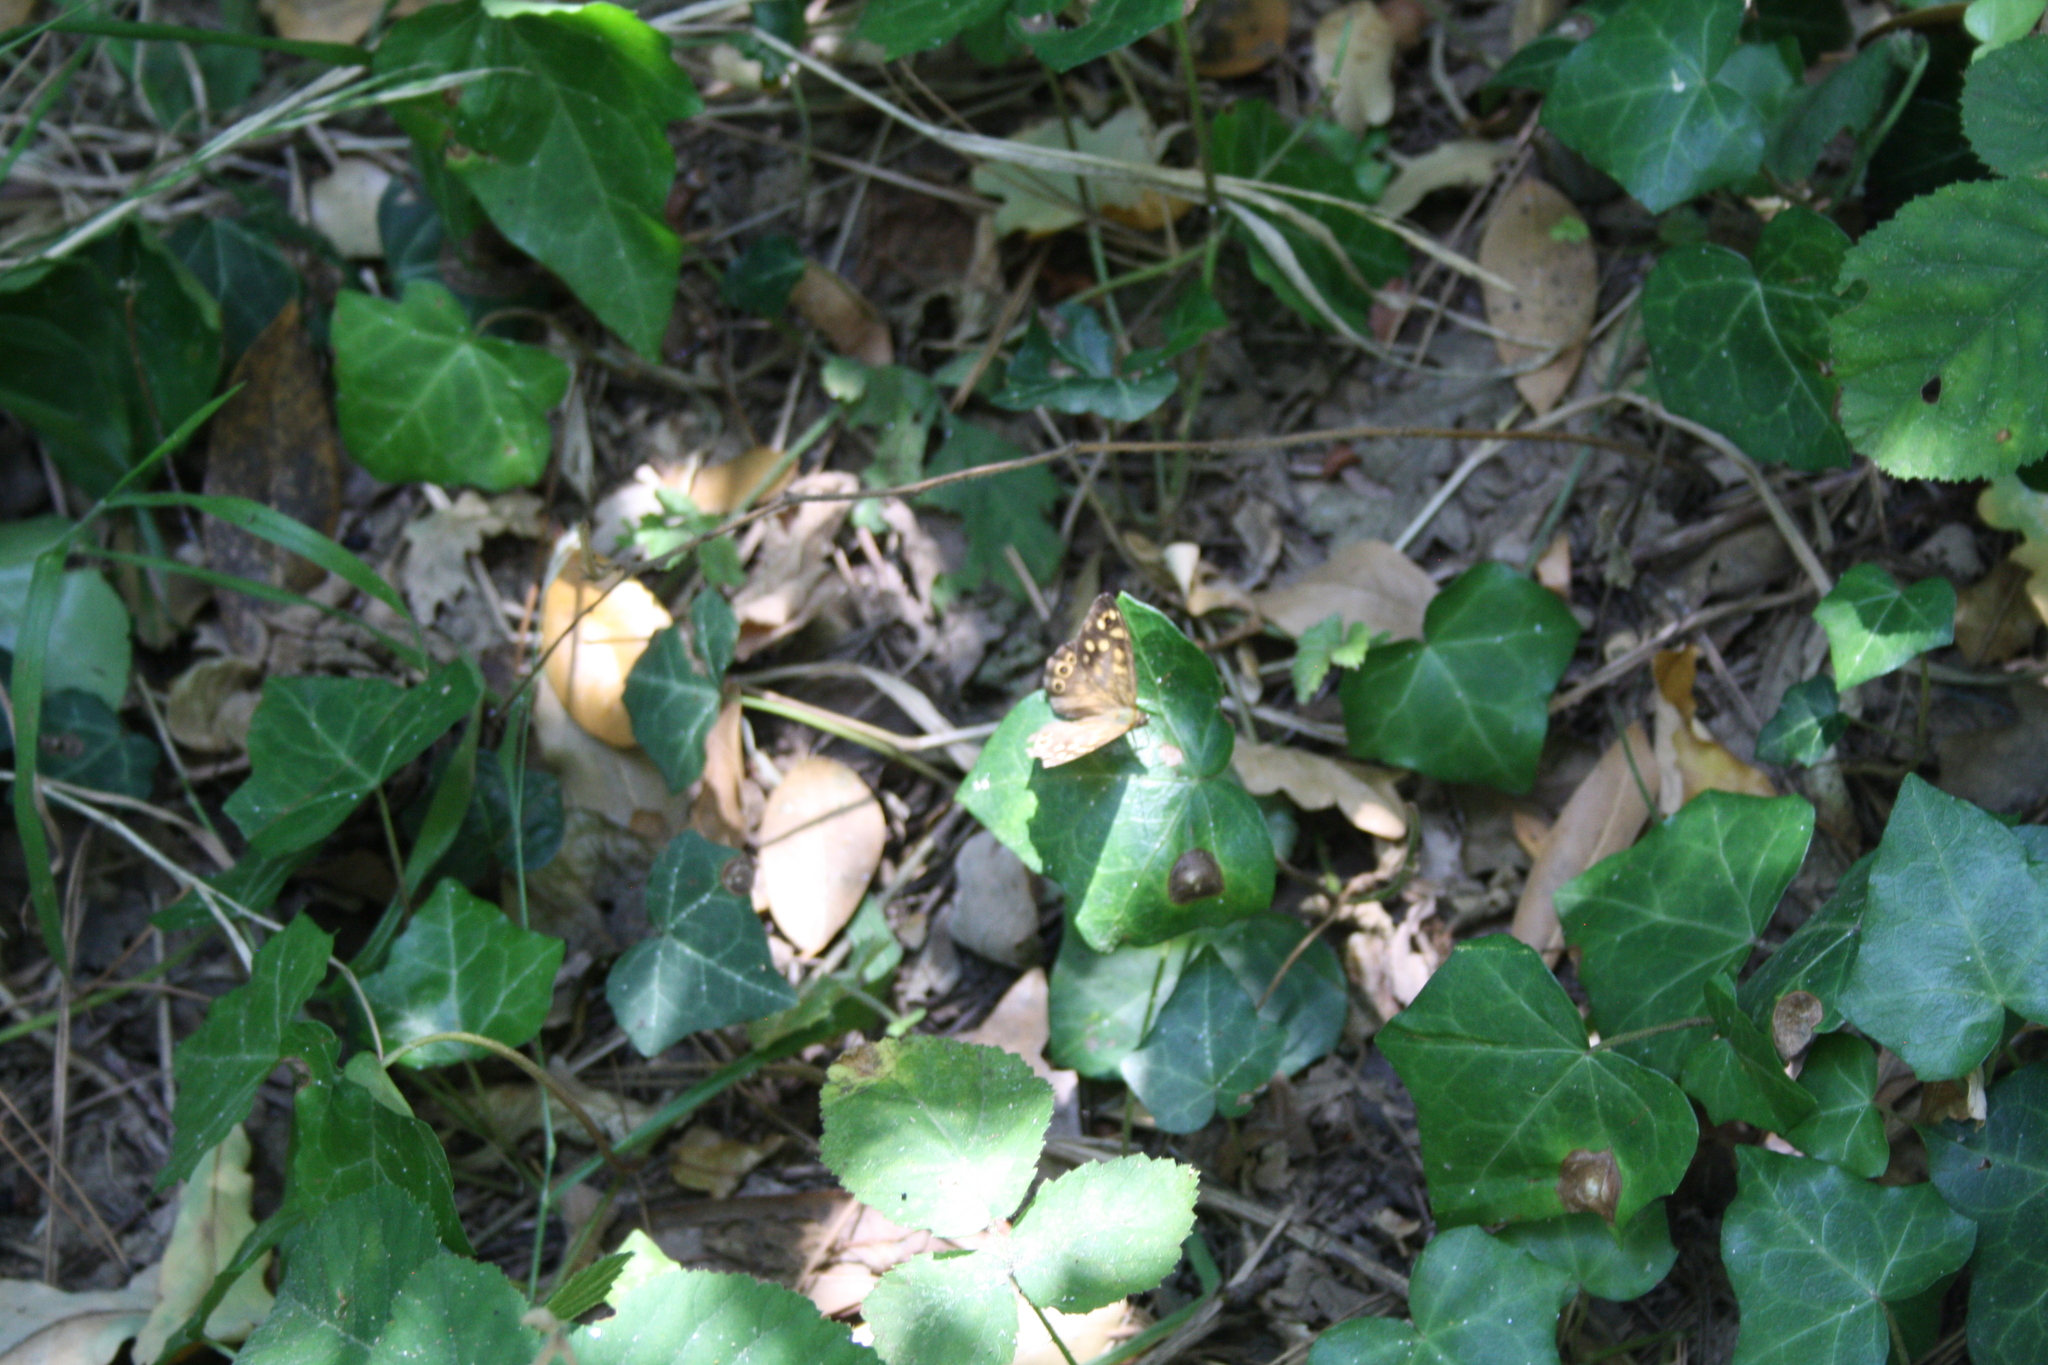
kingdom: Animalia
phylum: Arthropoda
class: Insecta
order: Lepidoptera
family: Nymphalidae
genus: Pararge
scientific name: Pararge aegeria
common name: Speckled wood
